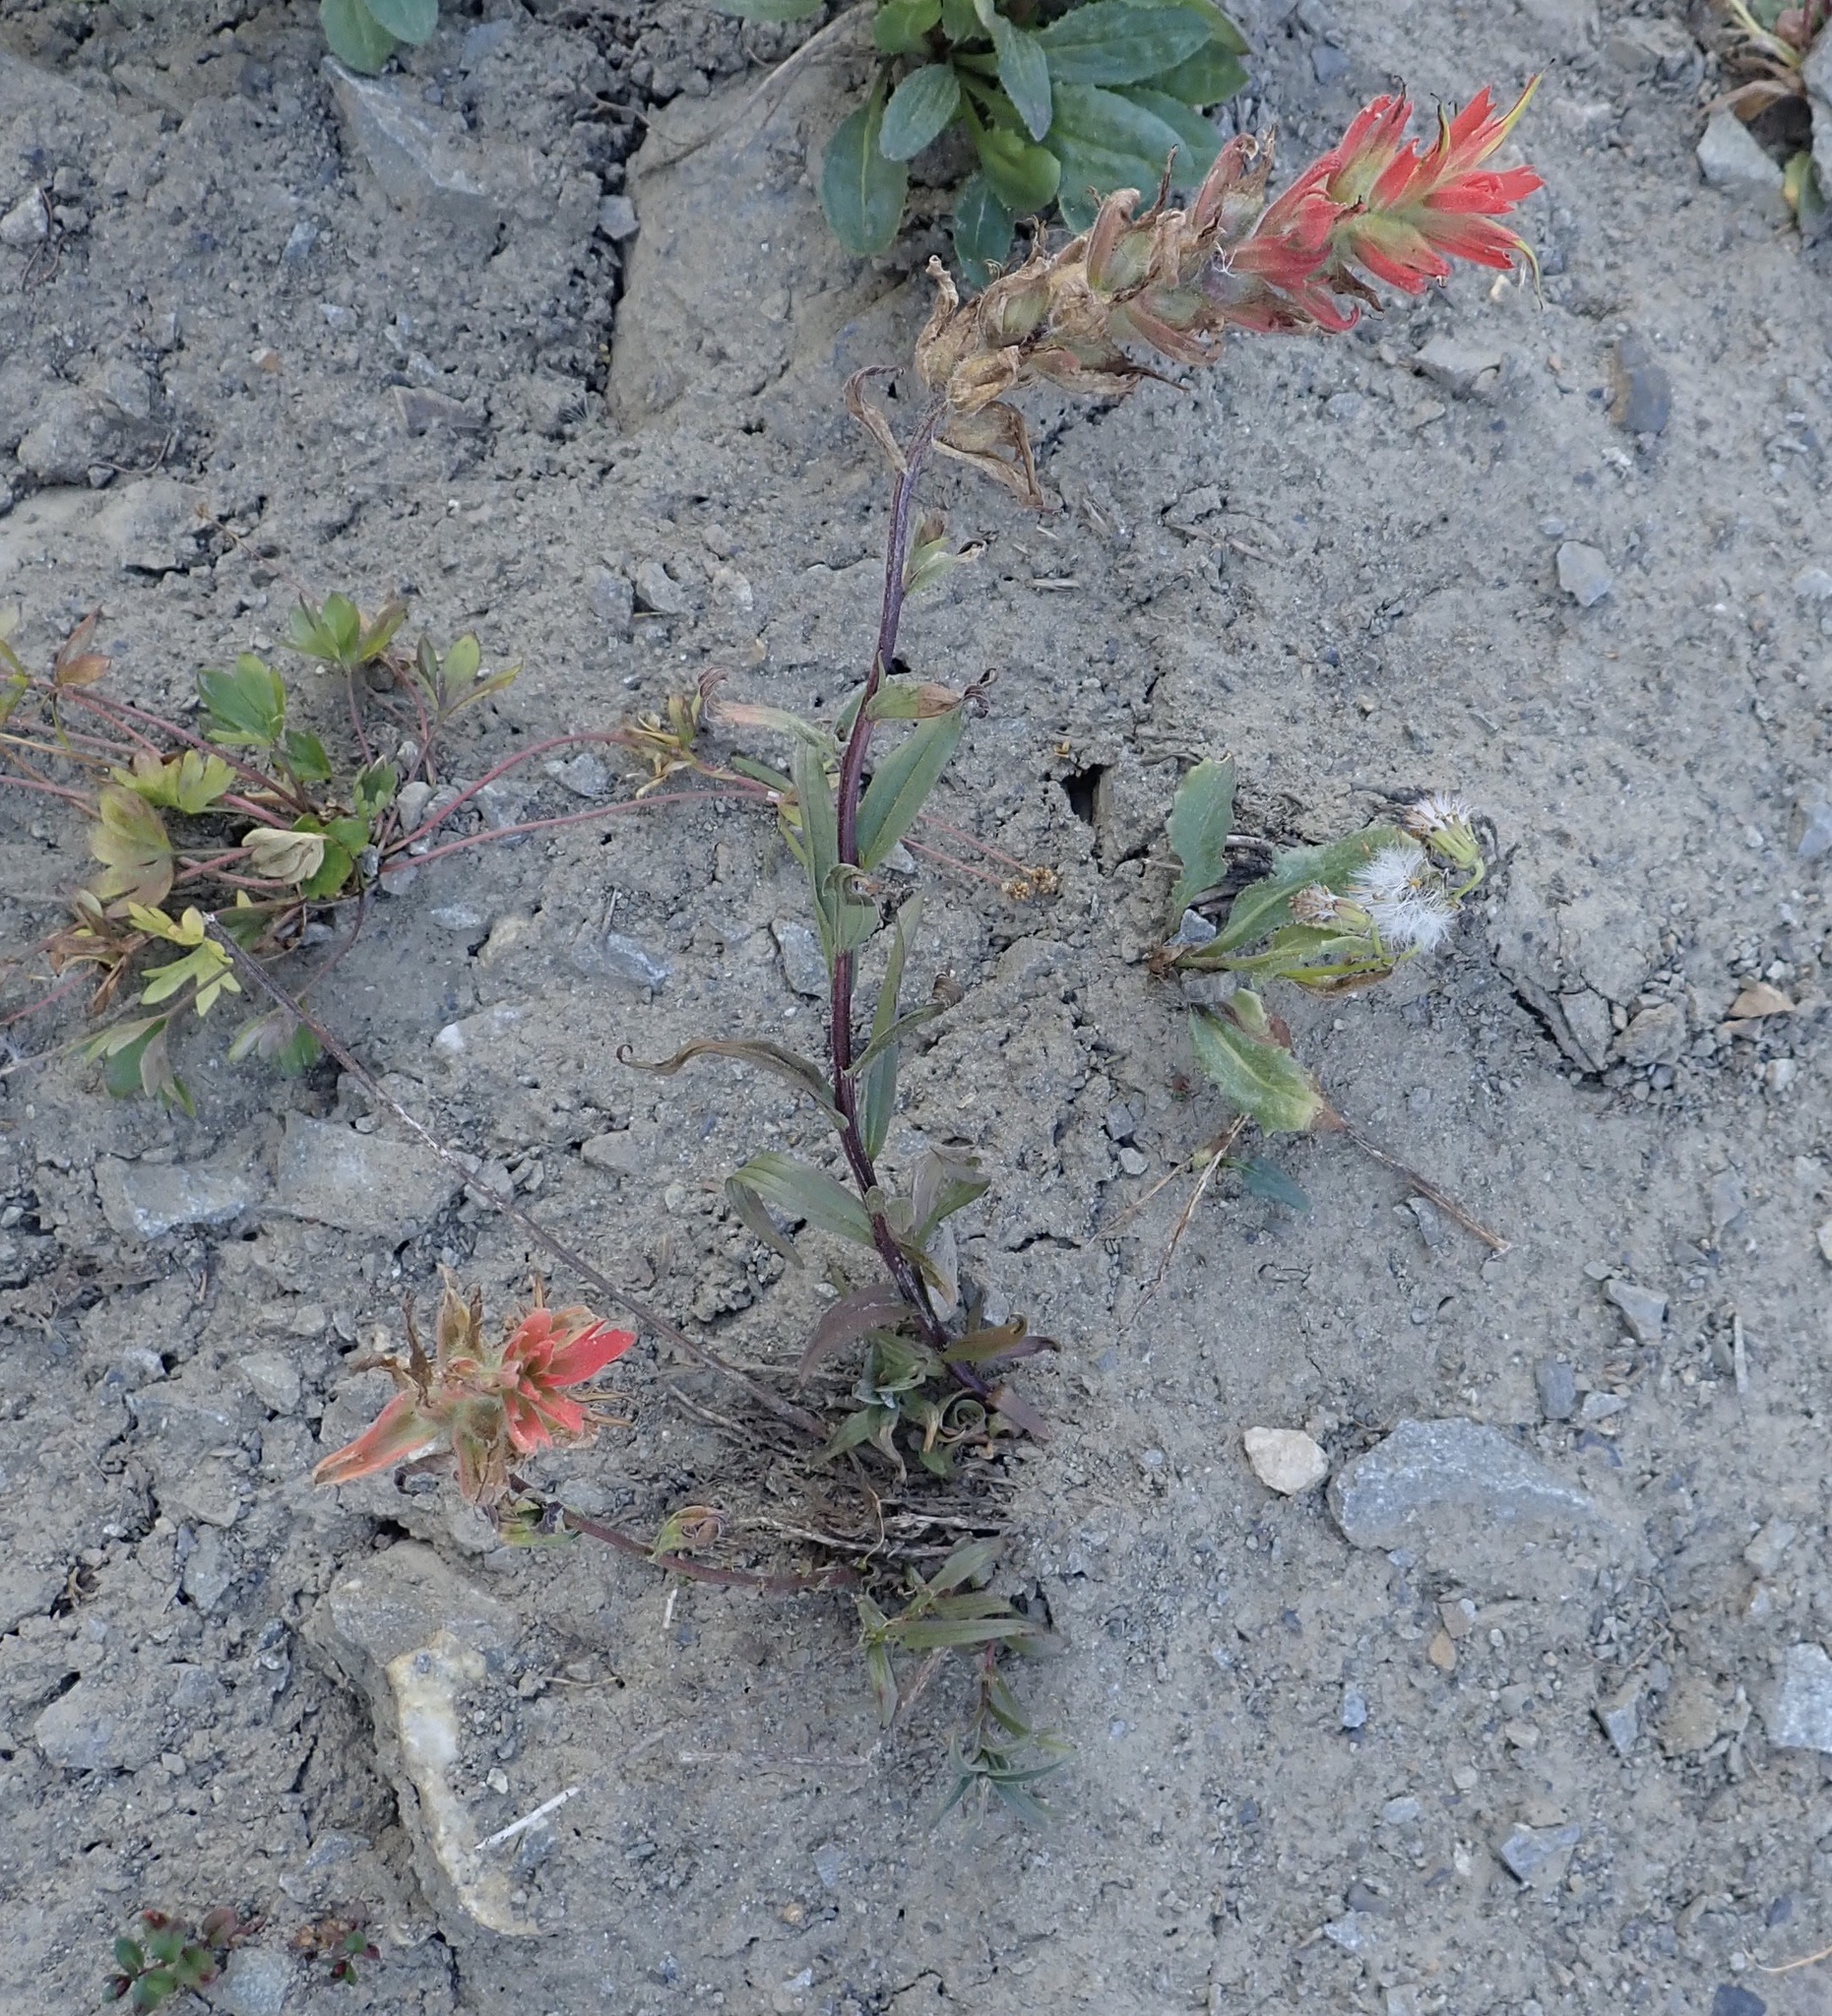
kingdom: Plantae
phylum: Tracheophyta
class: Magnoliopsida
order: Lamiales
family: Orobanchaceae
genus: Castilleja
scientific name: Castilleja miniata
